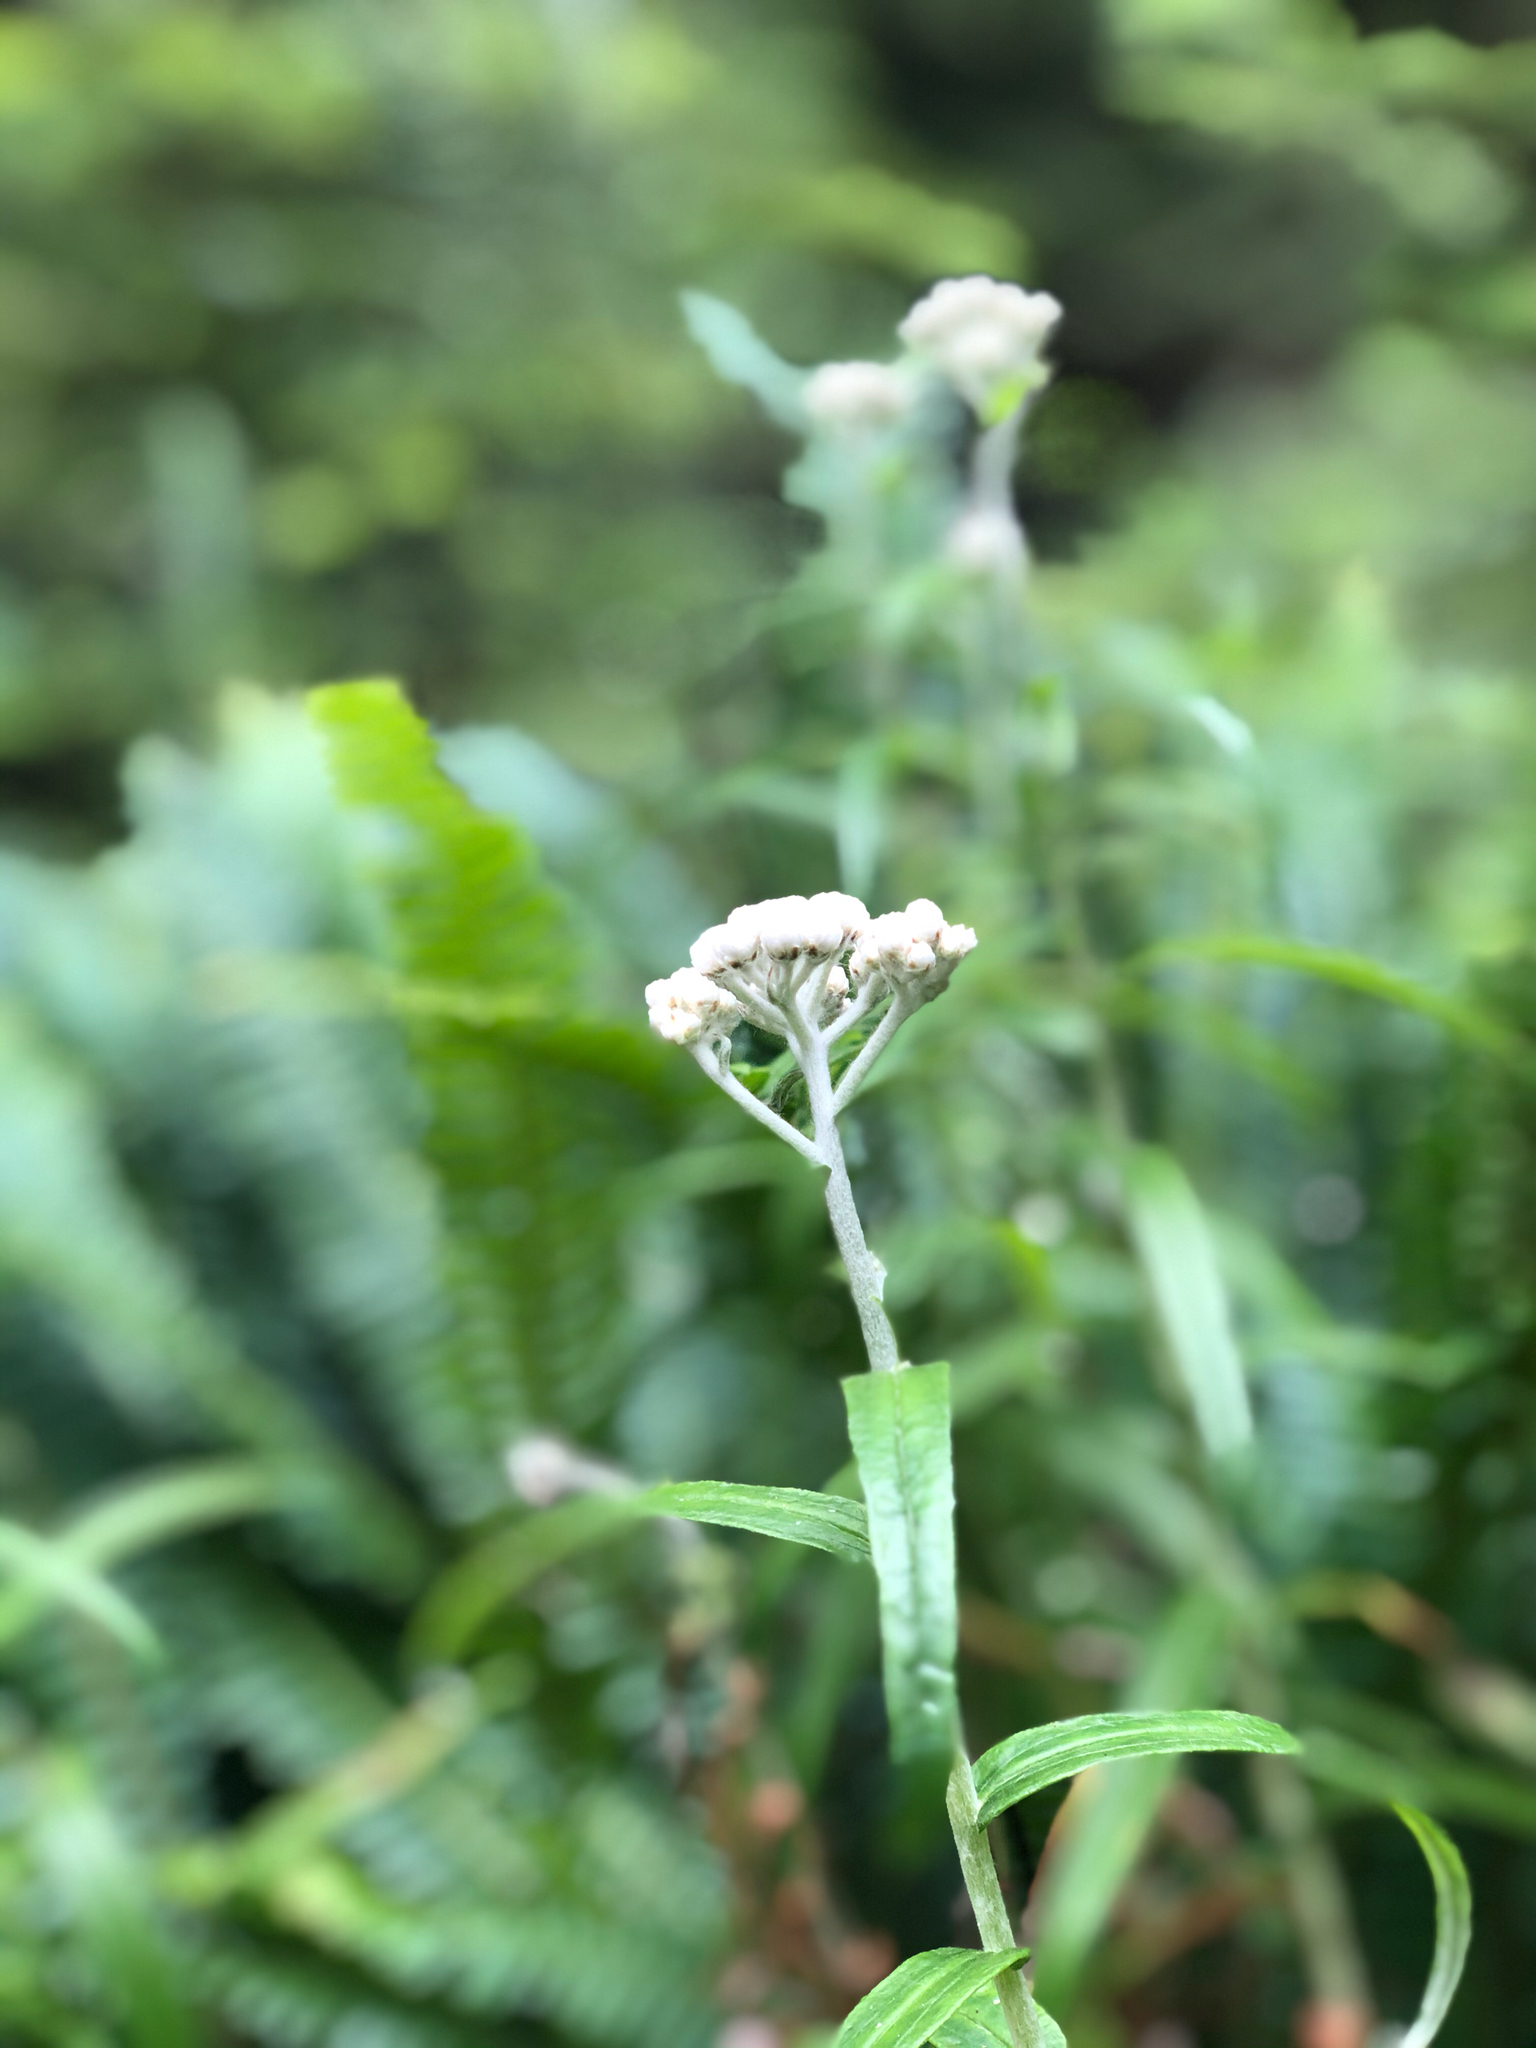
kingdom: Plantae
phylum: Tracheophyta
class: Magnoliopsida
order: Asterales
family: Asteraceae
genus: Anaphalis
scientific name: Anaphalis margaritacea
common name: Pearly everlasting
